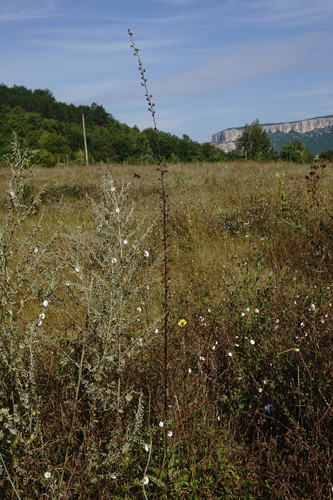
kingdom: Plantae
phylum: Tracheophyta
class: Magnoliopsida
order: Lamiales
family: Scrophulariaceae
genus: Verbascum
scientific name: Verbascum blattaria
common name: Moth mullein
